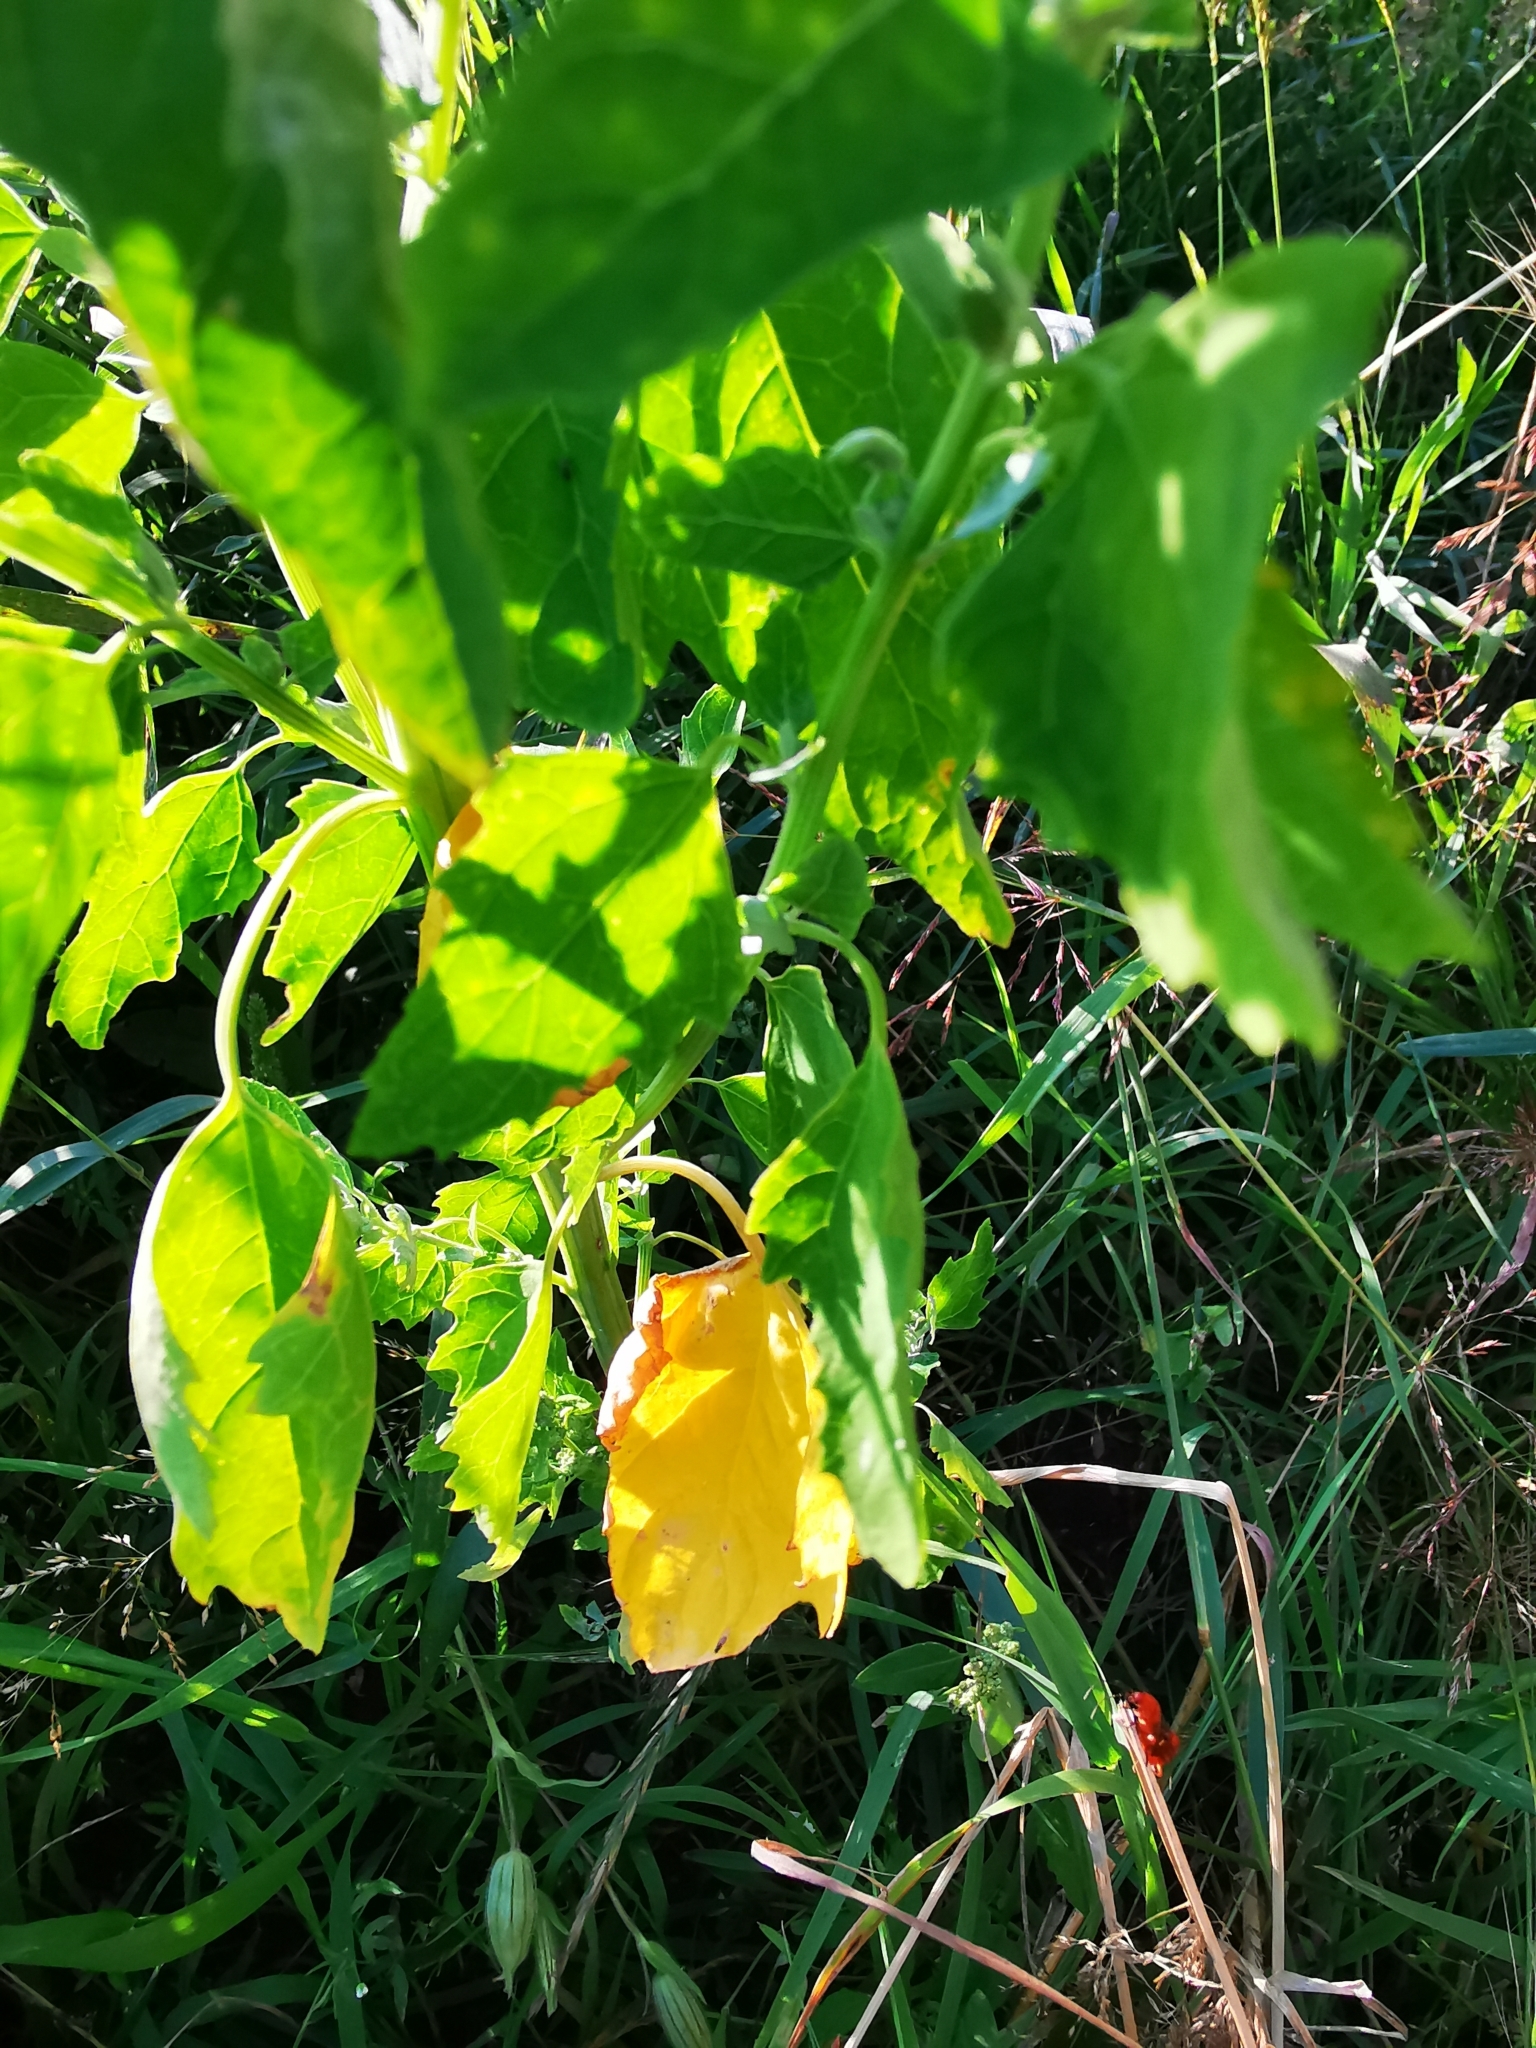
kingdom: Plantae
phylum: Tracheophyta
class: Magnoliopsida
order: Caryophyllales
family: Amaranthaceae
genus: Chenopodium
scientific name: Chenopodium album
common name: Fat-hen
